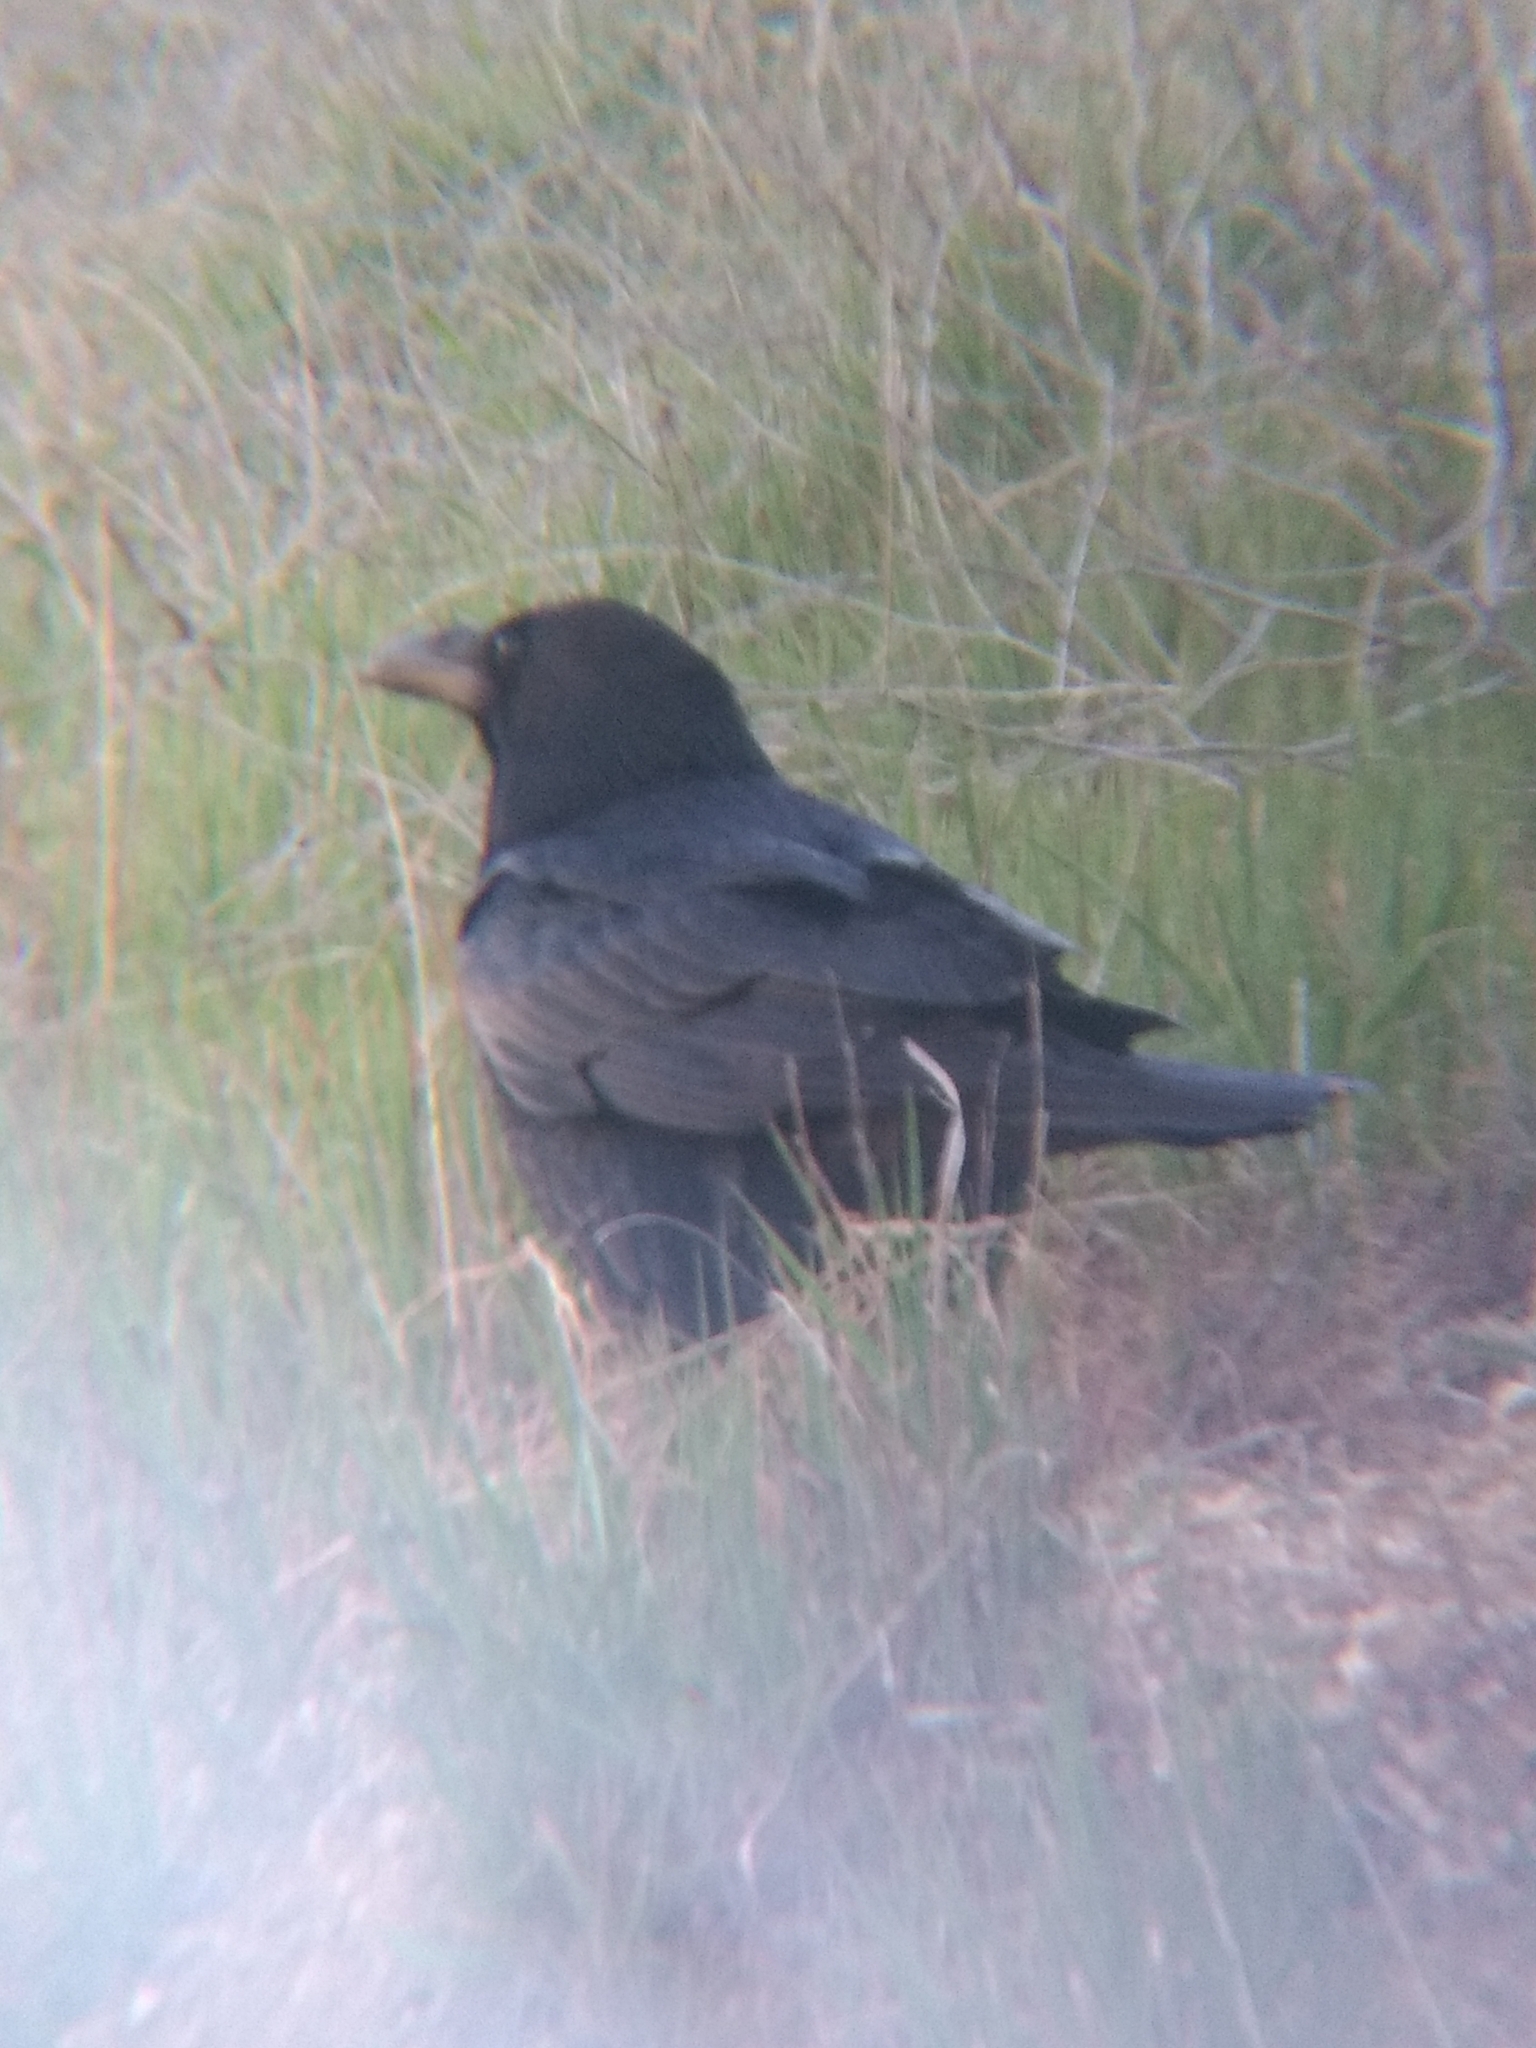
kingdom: Animalia
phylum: Chordata
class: Aves
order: Passeriformes
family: Corvidae
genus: Corvus
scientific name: Corvus corax
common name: Common raven
